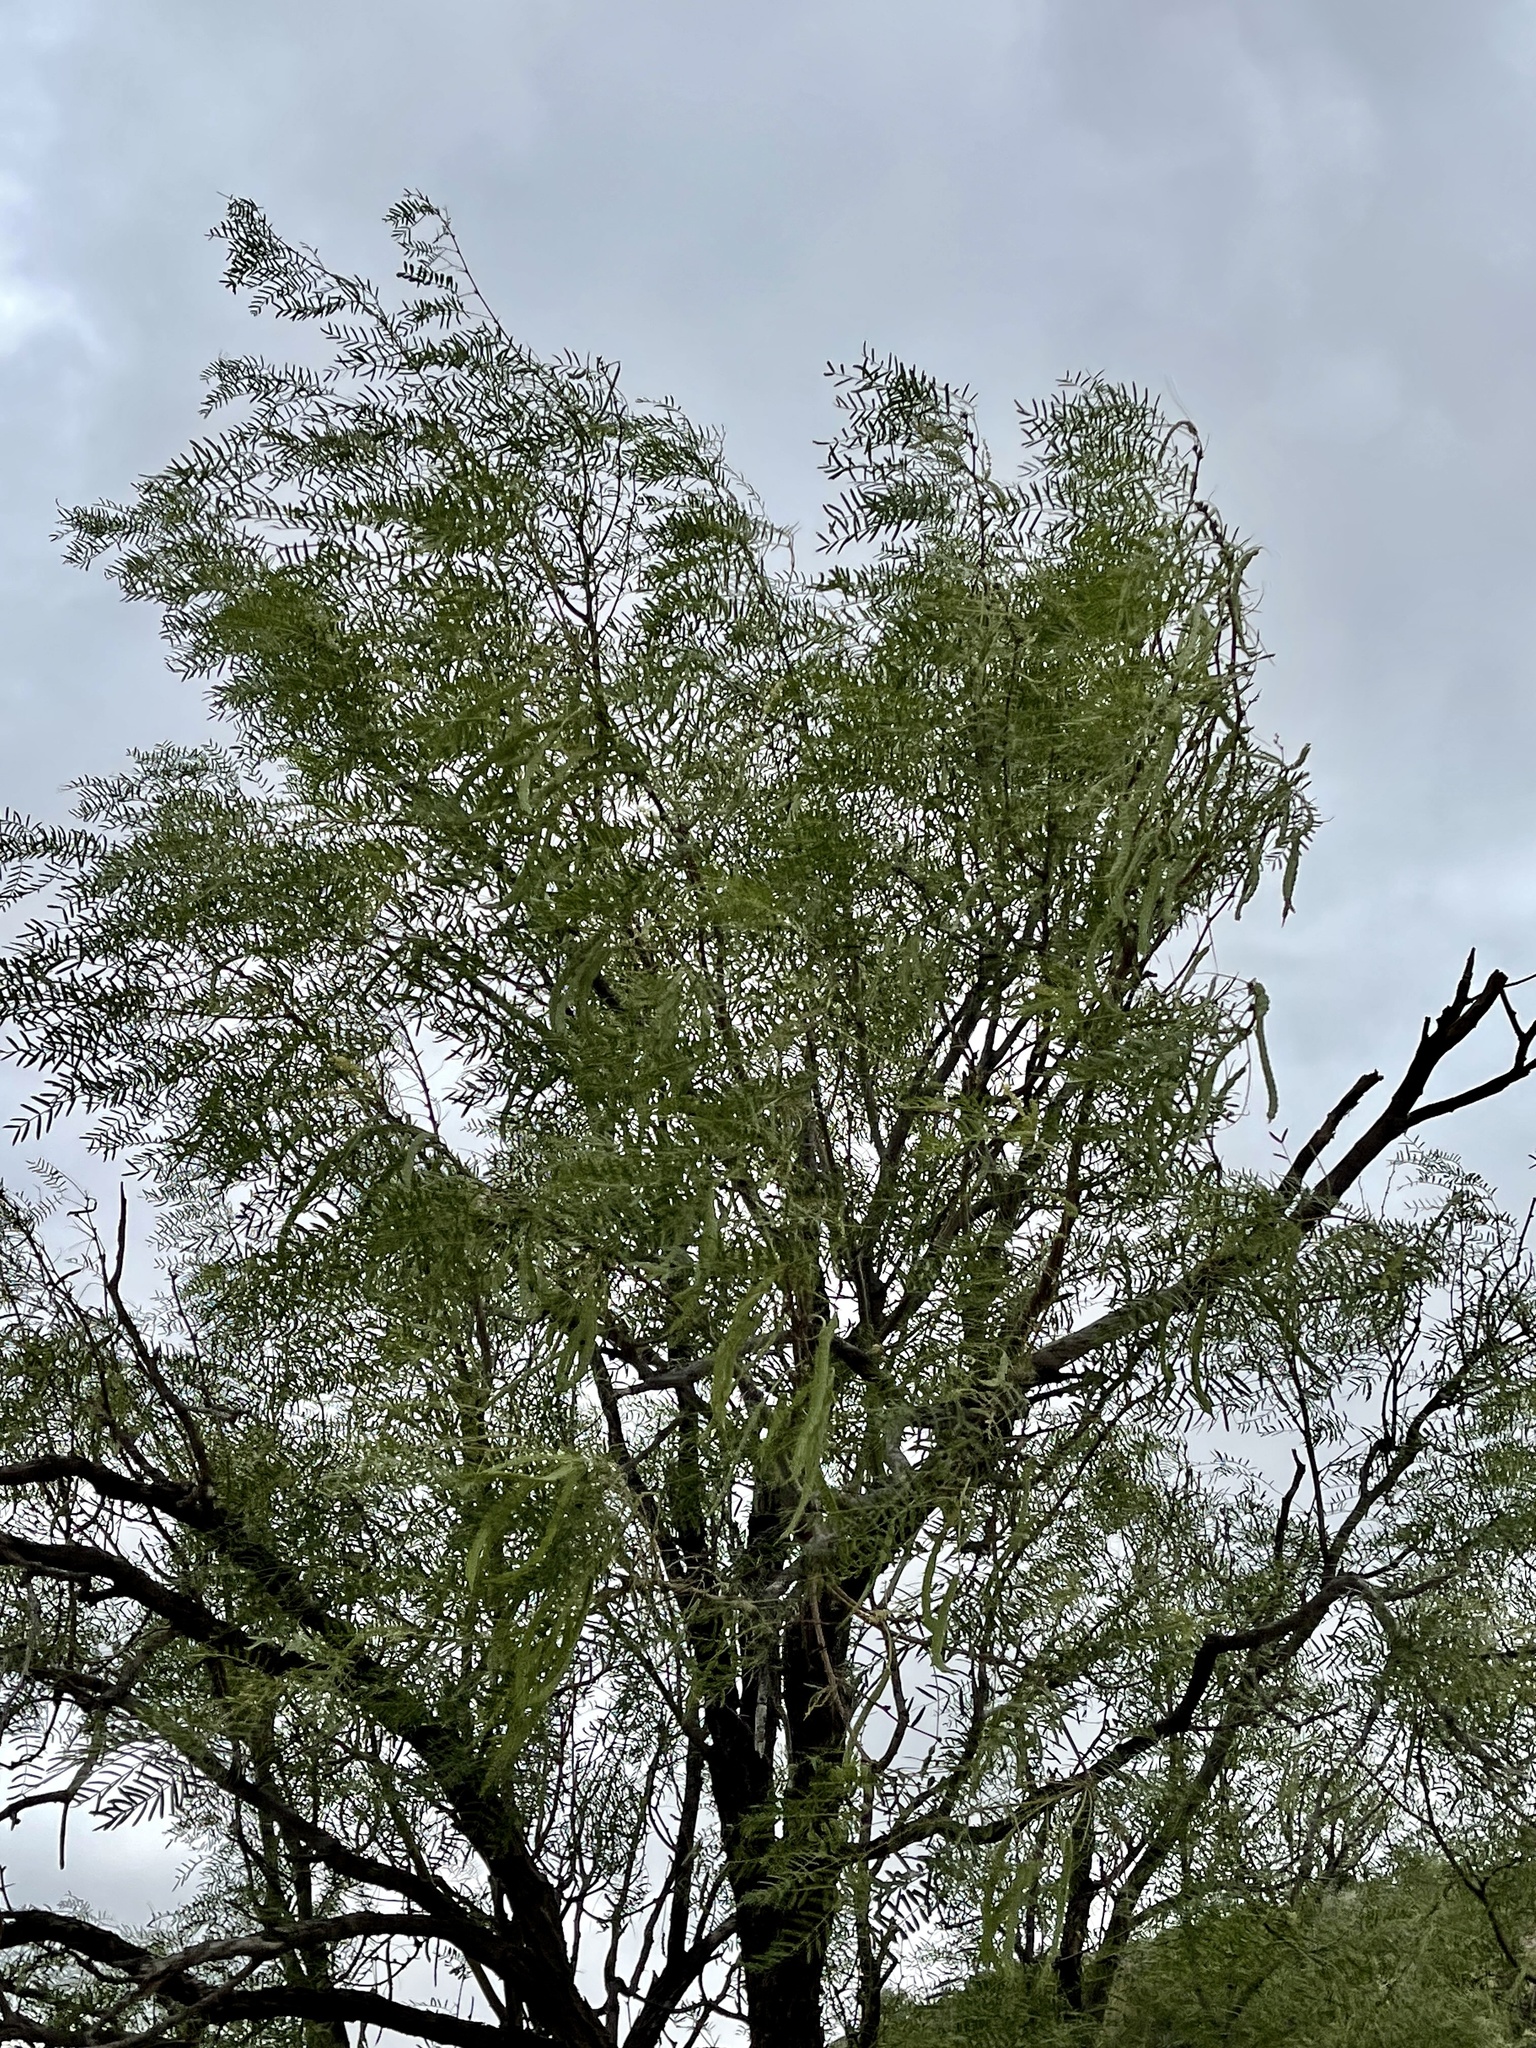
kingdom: Plantae
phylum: Tracheophyta
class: Magnoliopsida
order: Fabales
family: Fabaceae
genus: Prosopis
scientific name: Prosopis glandulosa
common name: Honey mesquite
